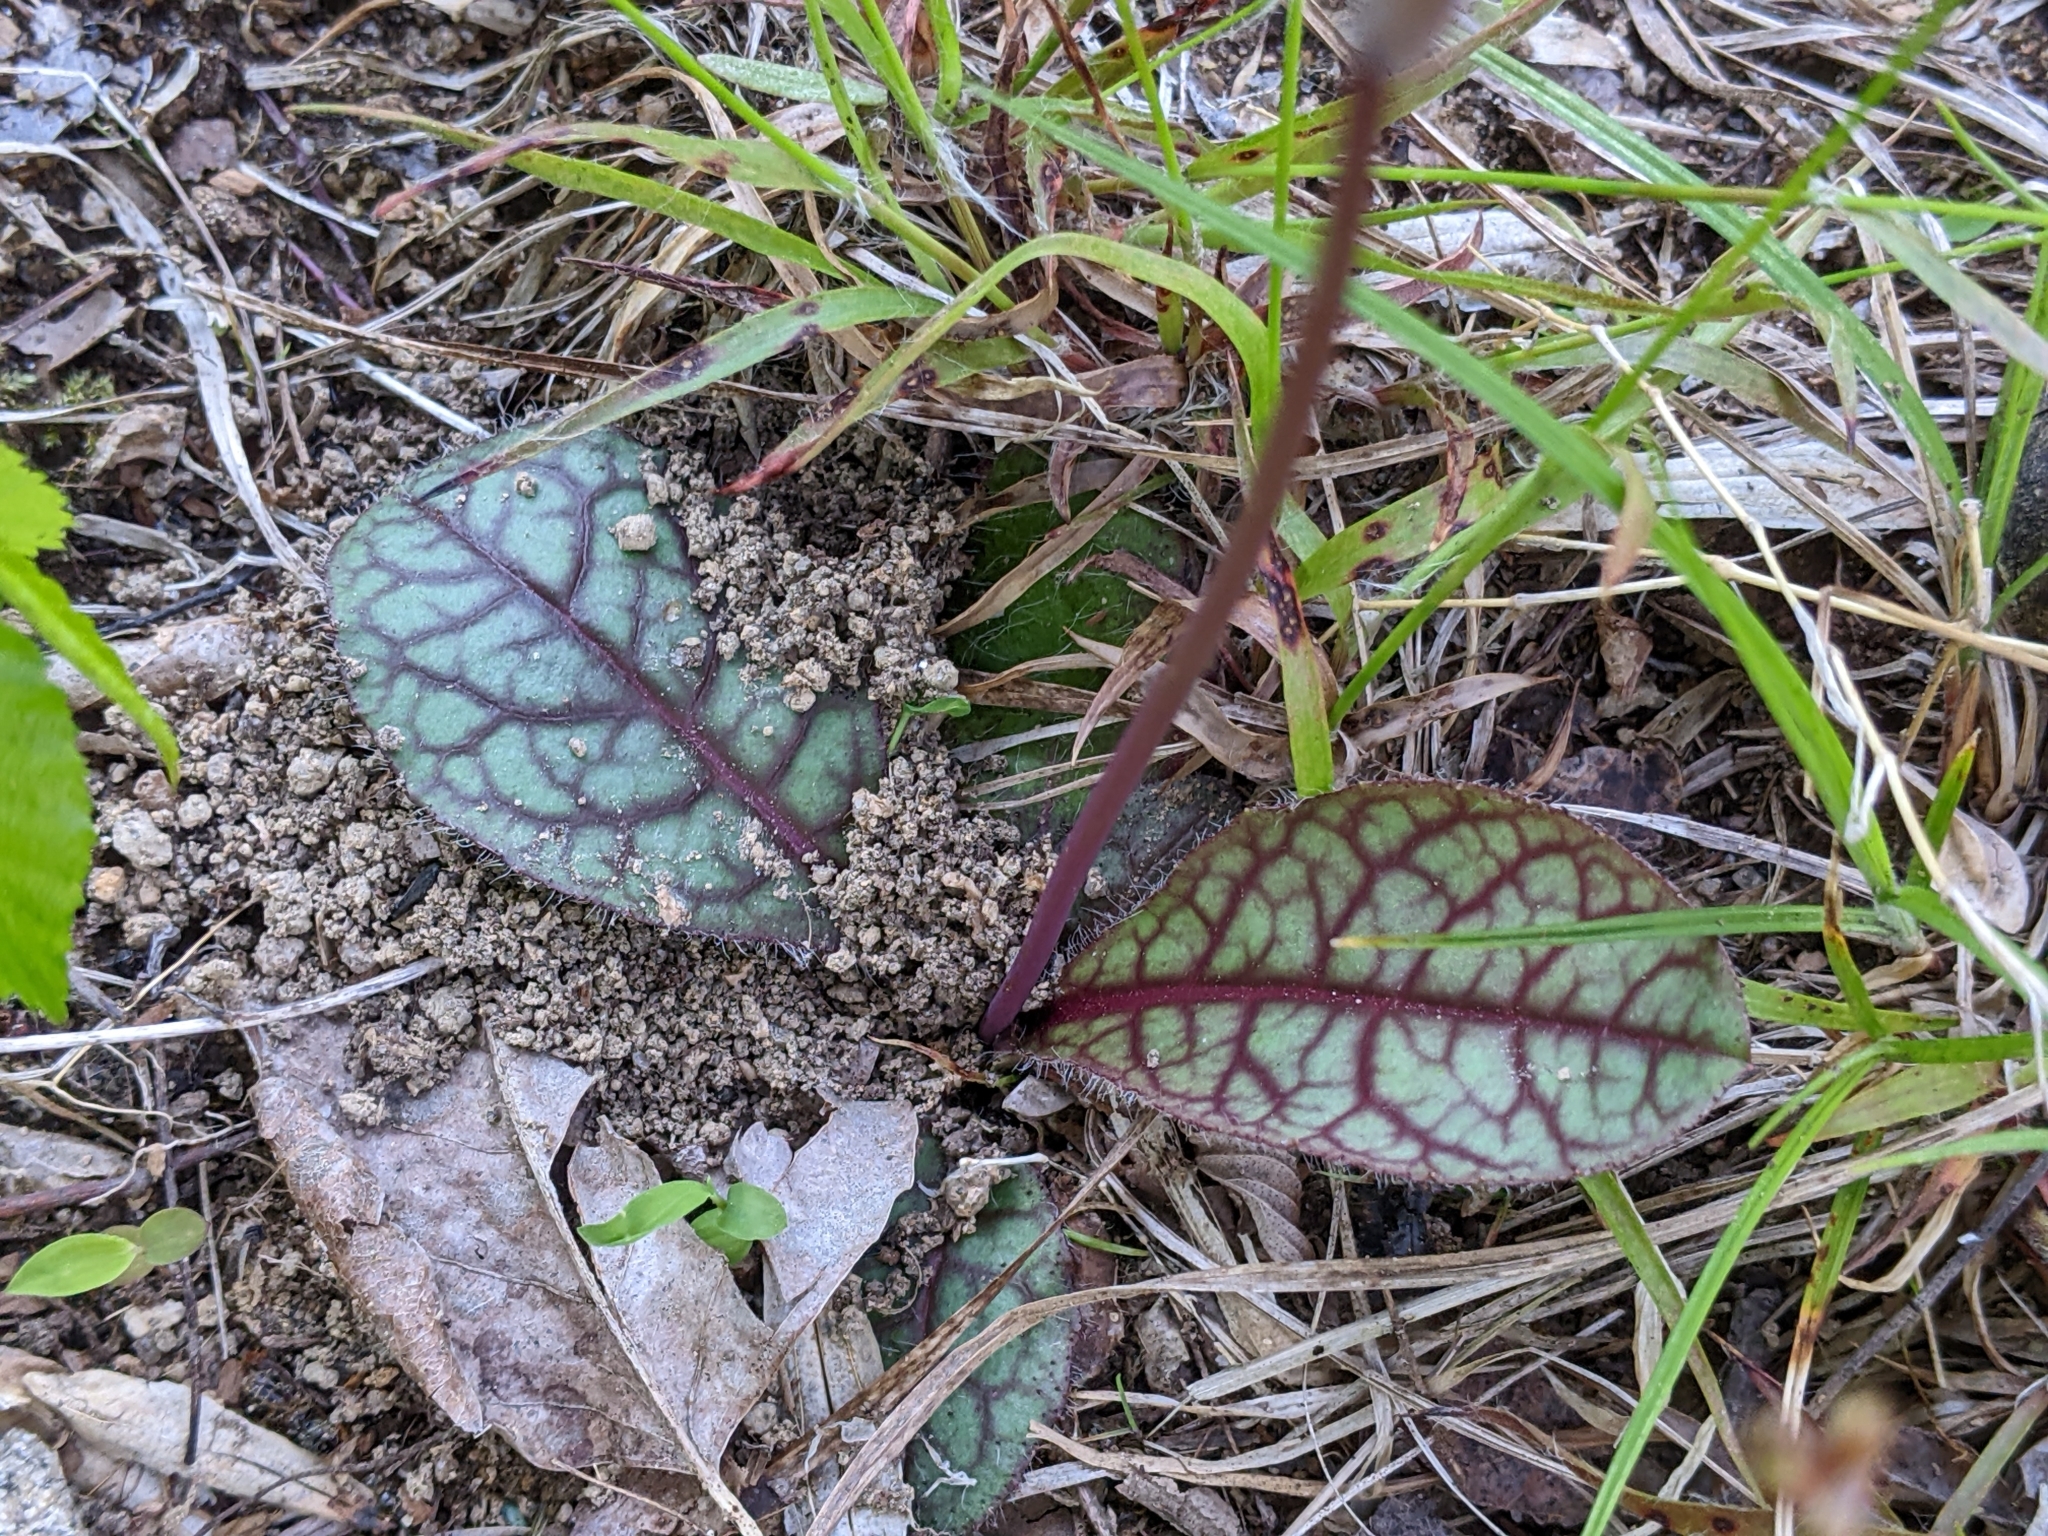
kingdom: Plantae
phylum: Tracheophyta
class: Magnoliopsida
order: Asterales
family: Asteraceae
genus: Hieracium
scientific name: Hieracium venosum
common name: Rattlesnake hawkweed
